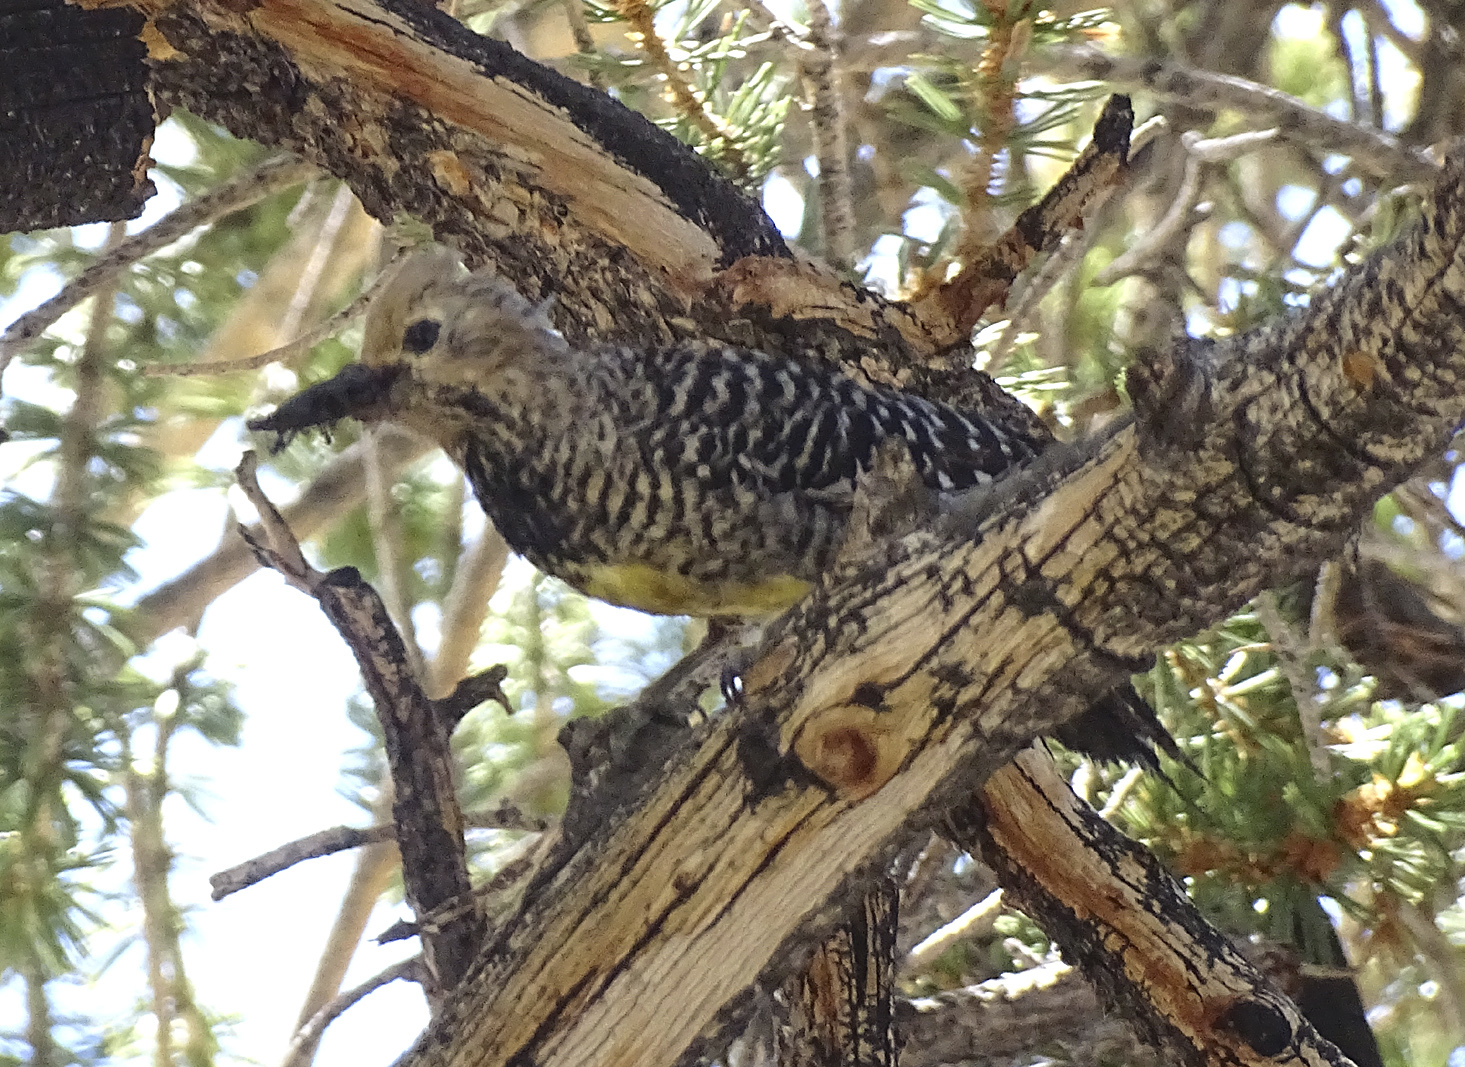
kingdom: Animalia
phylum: Chordata
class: Aves
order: Piciformes
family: Picidae
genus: Sphyrapicus
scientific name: Sphyrapicus thyroideus
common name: Williamson's sapsucker
